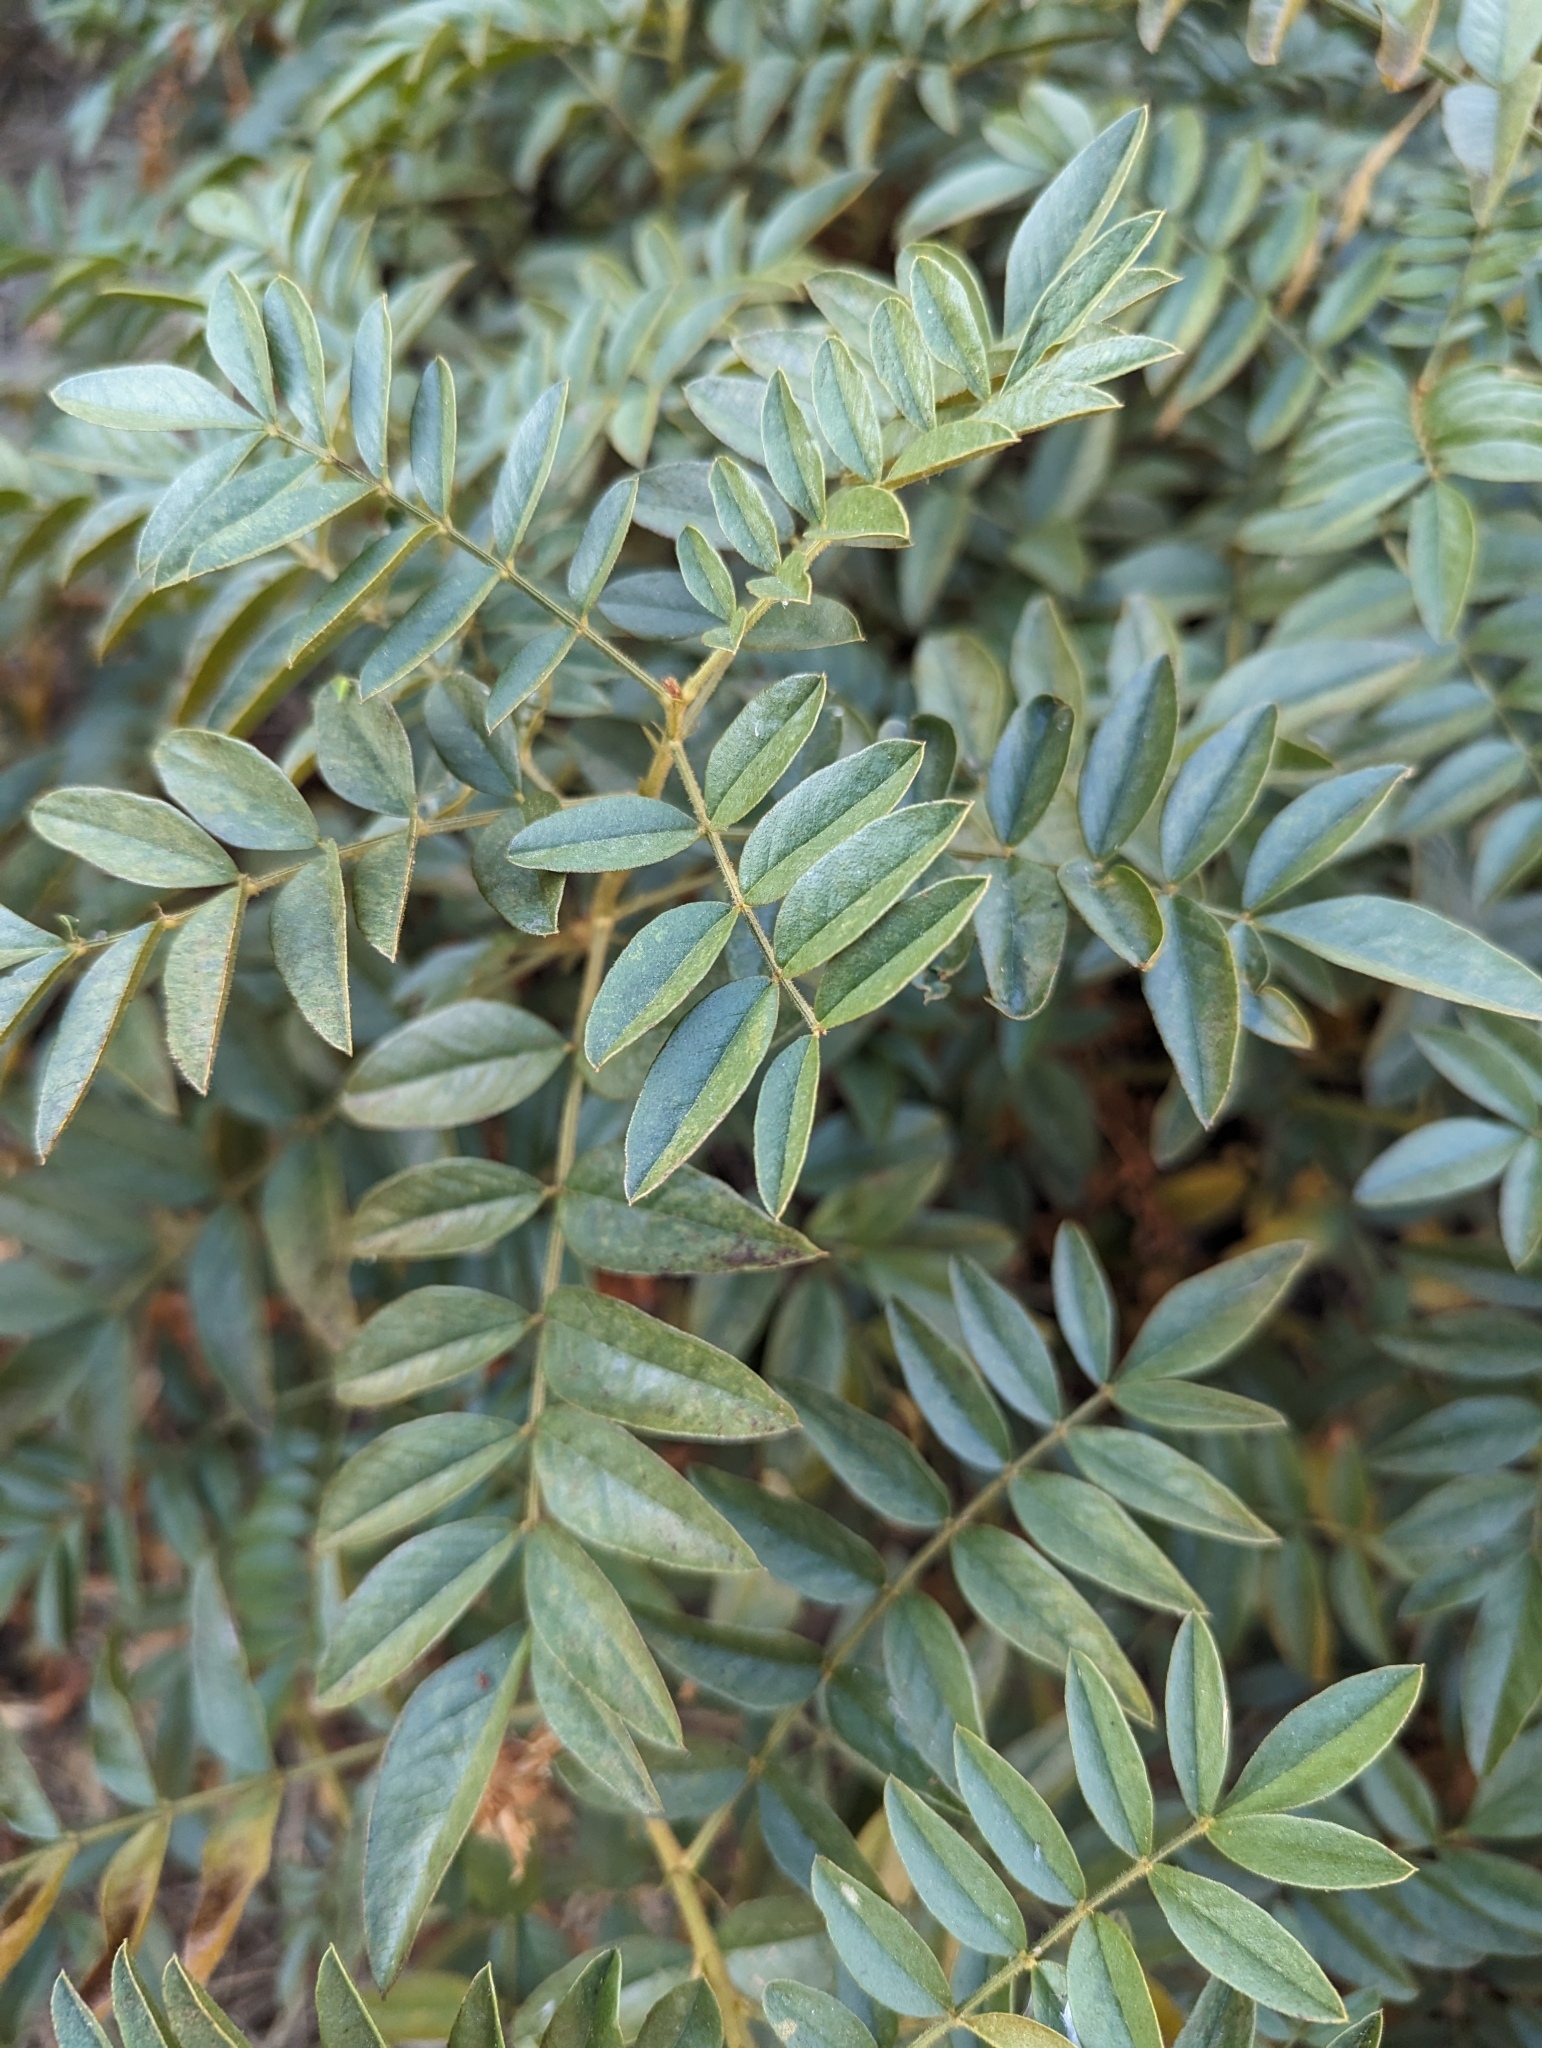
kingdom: Plantae
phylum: Tracheophyta
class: Magnoliopsida
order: Fabales
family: Fabaceae
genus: Glycyrrhiza
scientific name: Glycyrrhiza lepidota
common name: American liquorice
